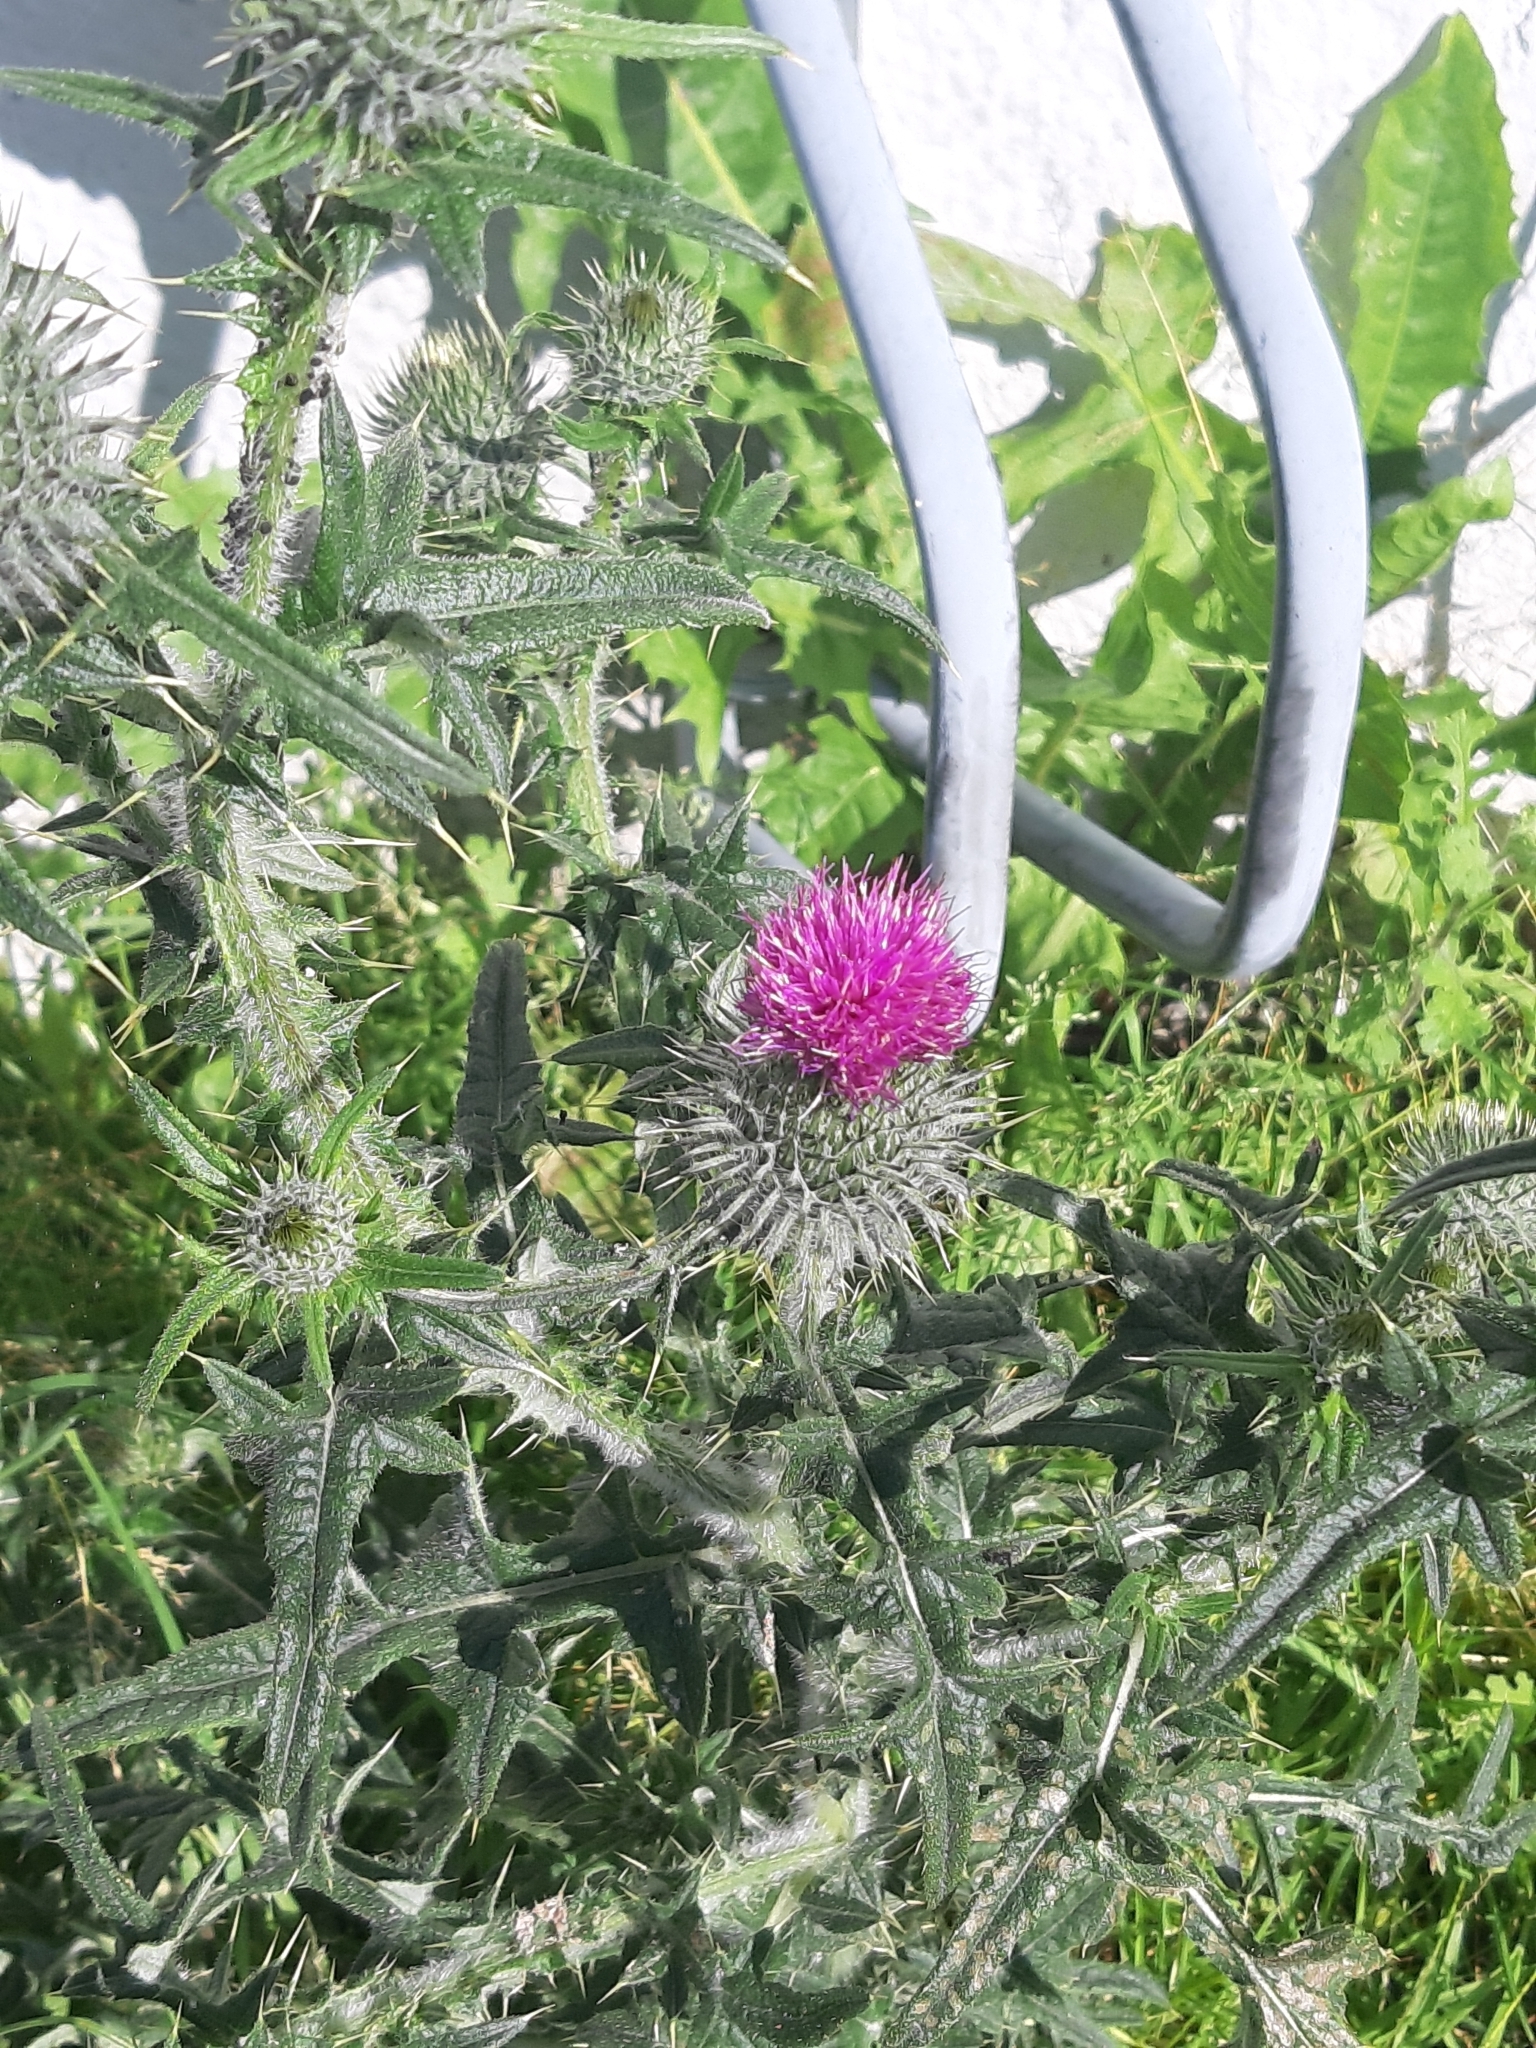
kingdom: Plantae
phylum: Tracheophyta
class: Magnoliopsida
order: Asterales
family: Asteraceae
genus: Cirsium
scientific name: Cirsium vulgare
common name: Bull thistle
